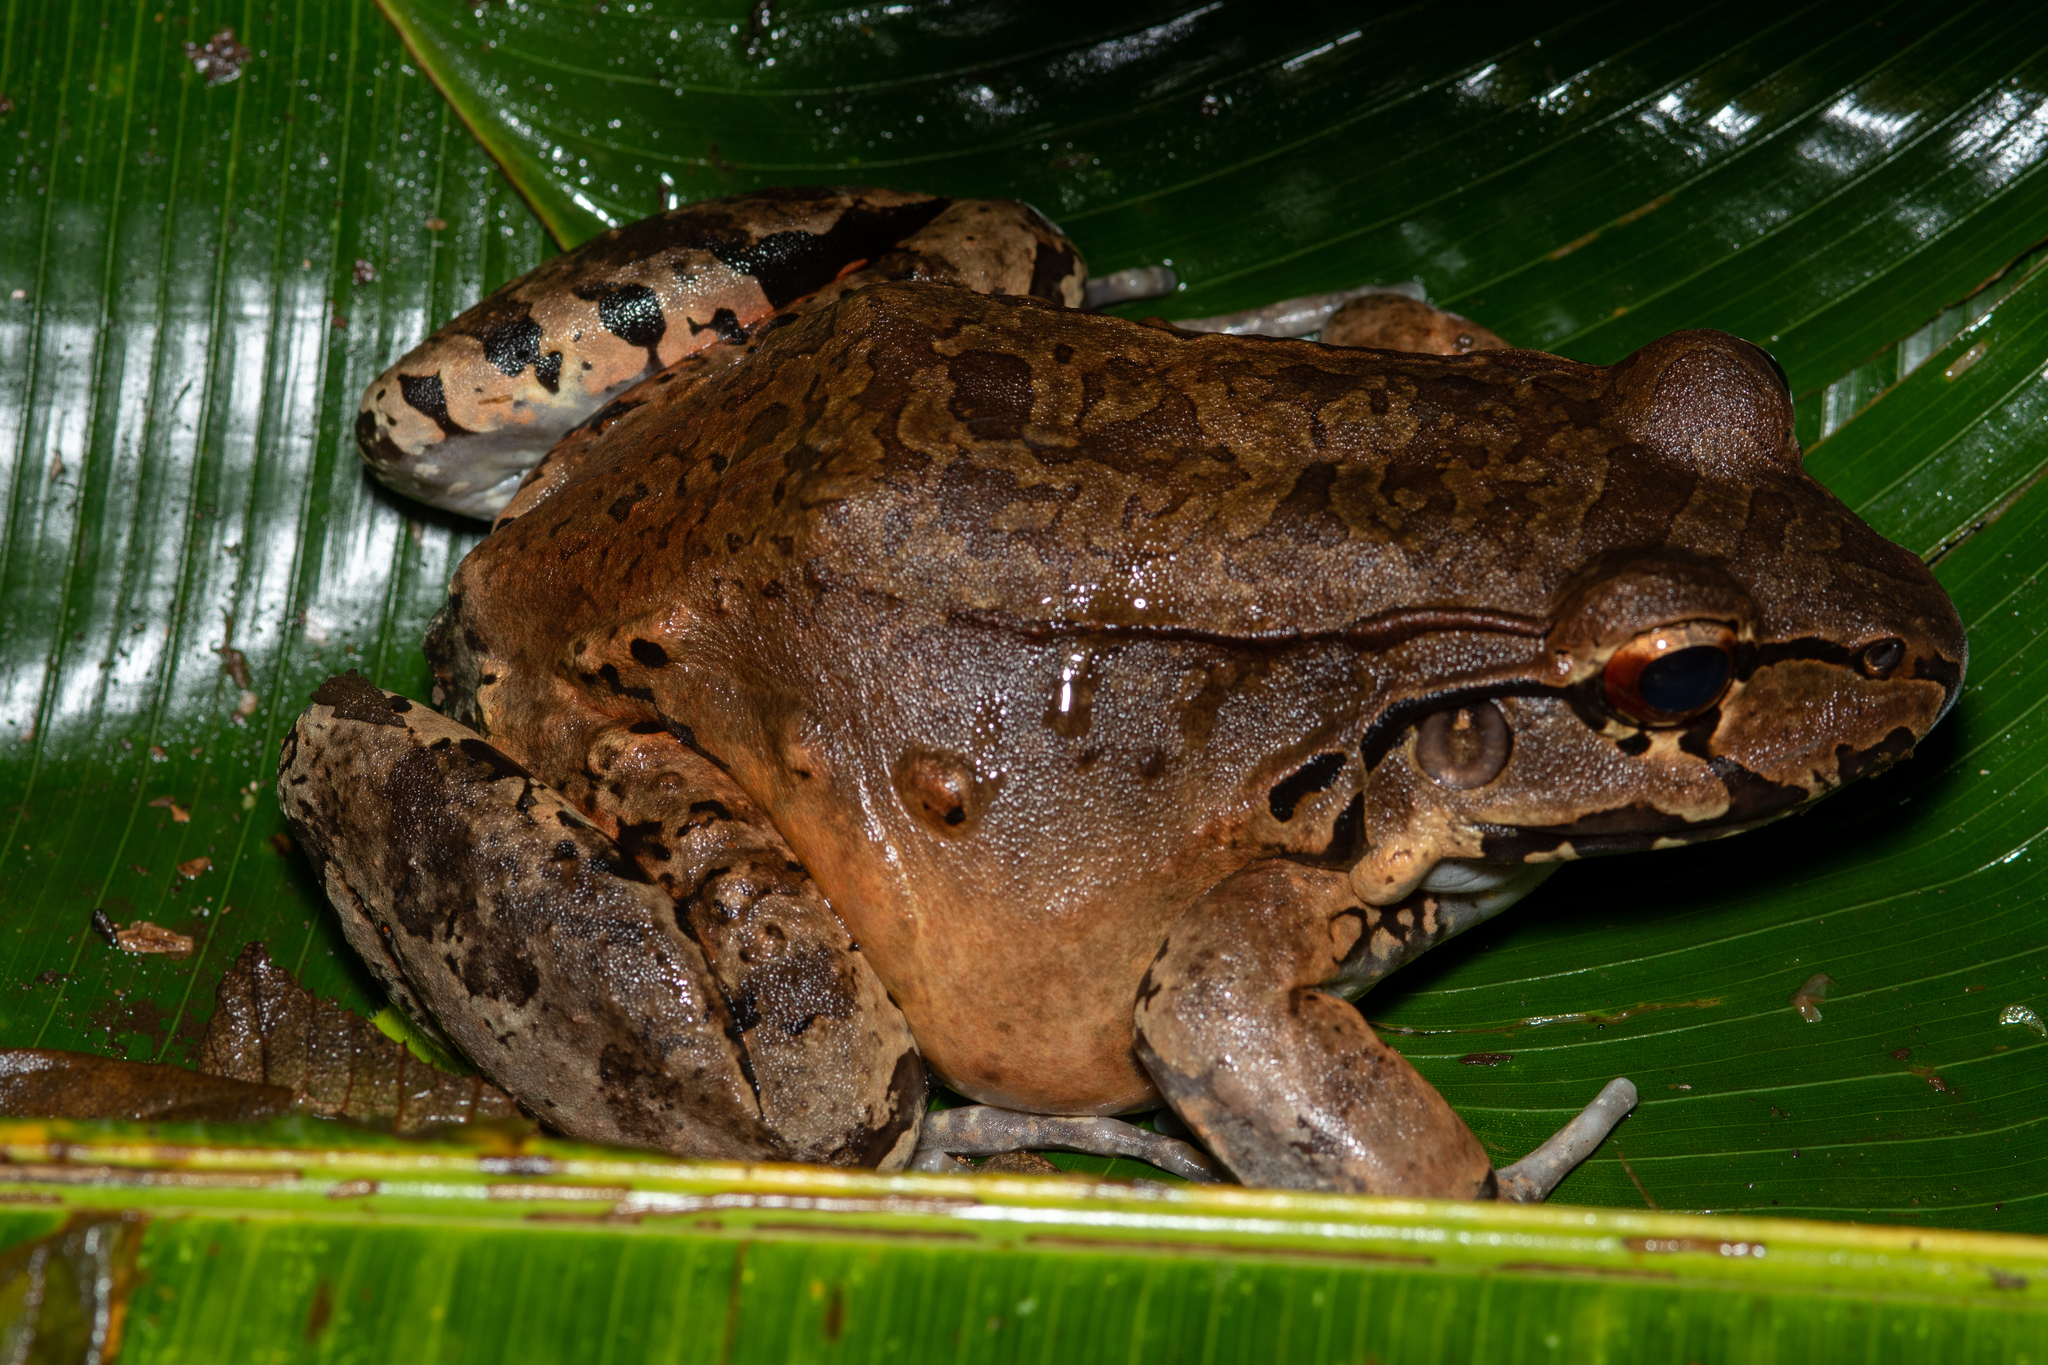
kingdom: Animalia
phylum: Chordata
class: Amphibia
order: Anura
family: Leptodactylidae
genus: Leptodactylus
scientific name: Leptodactylus savagei
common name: Savage's thin-toed frog
